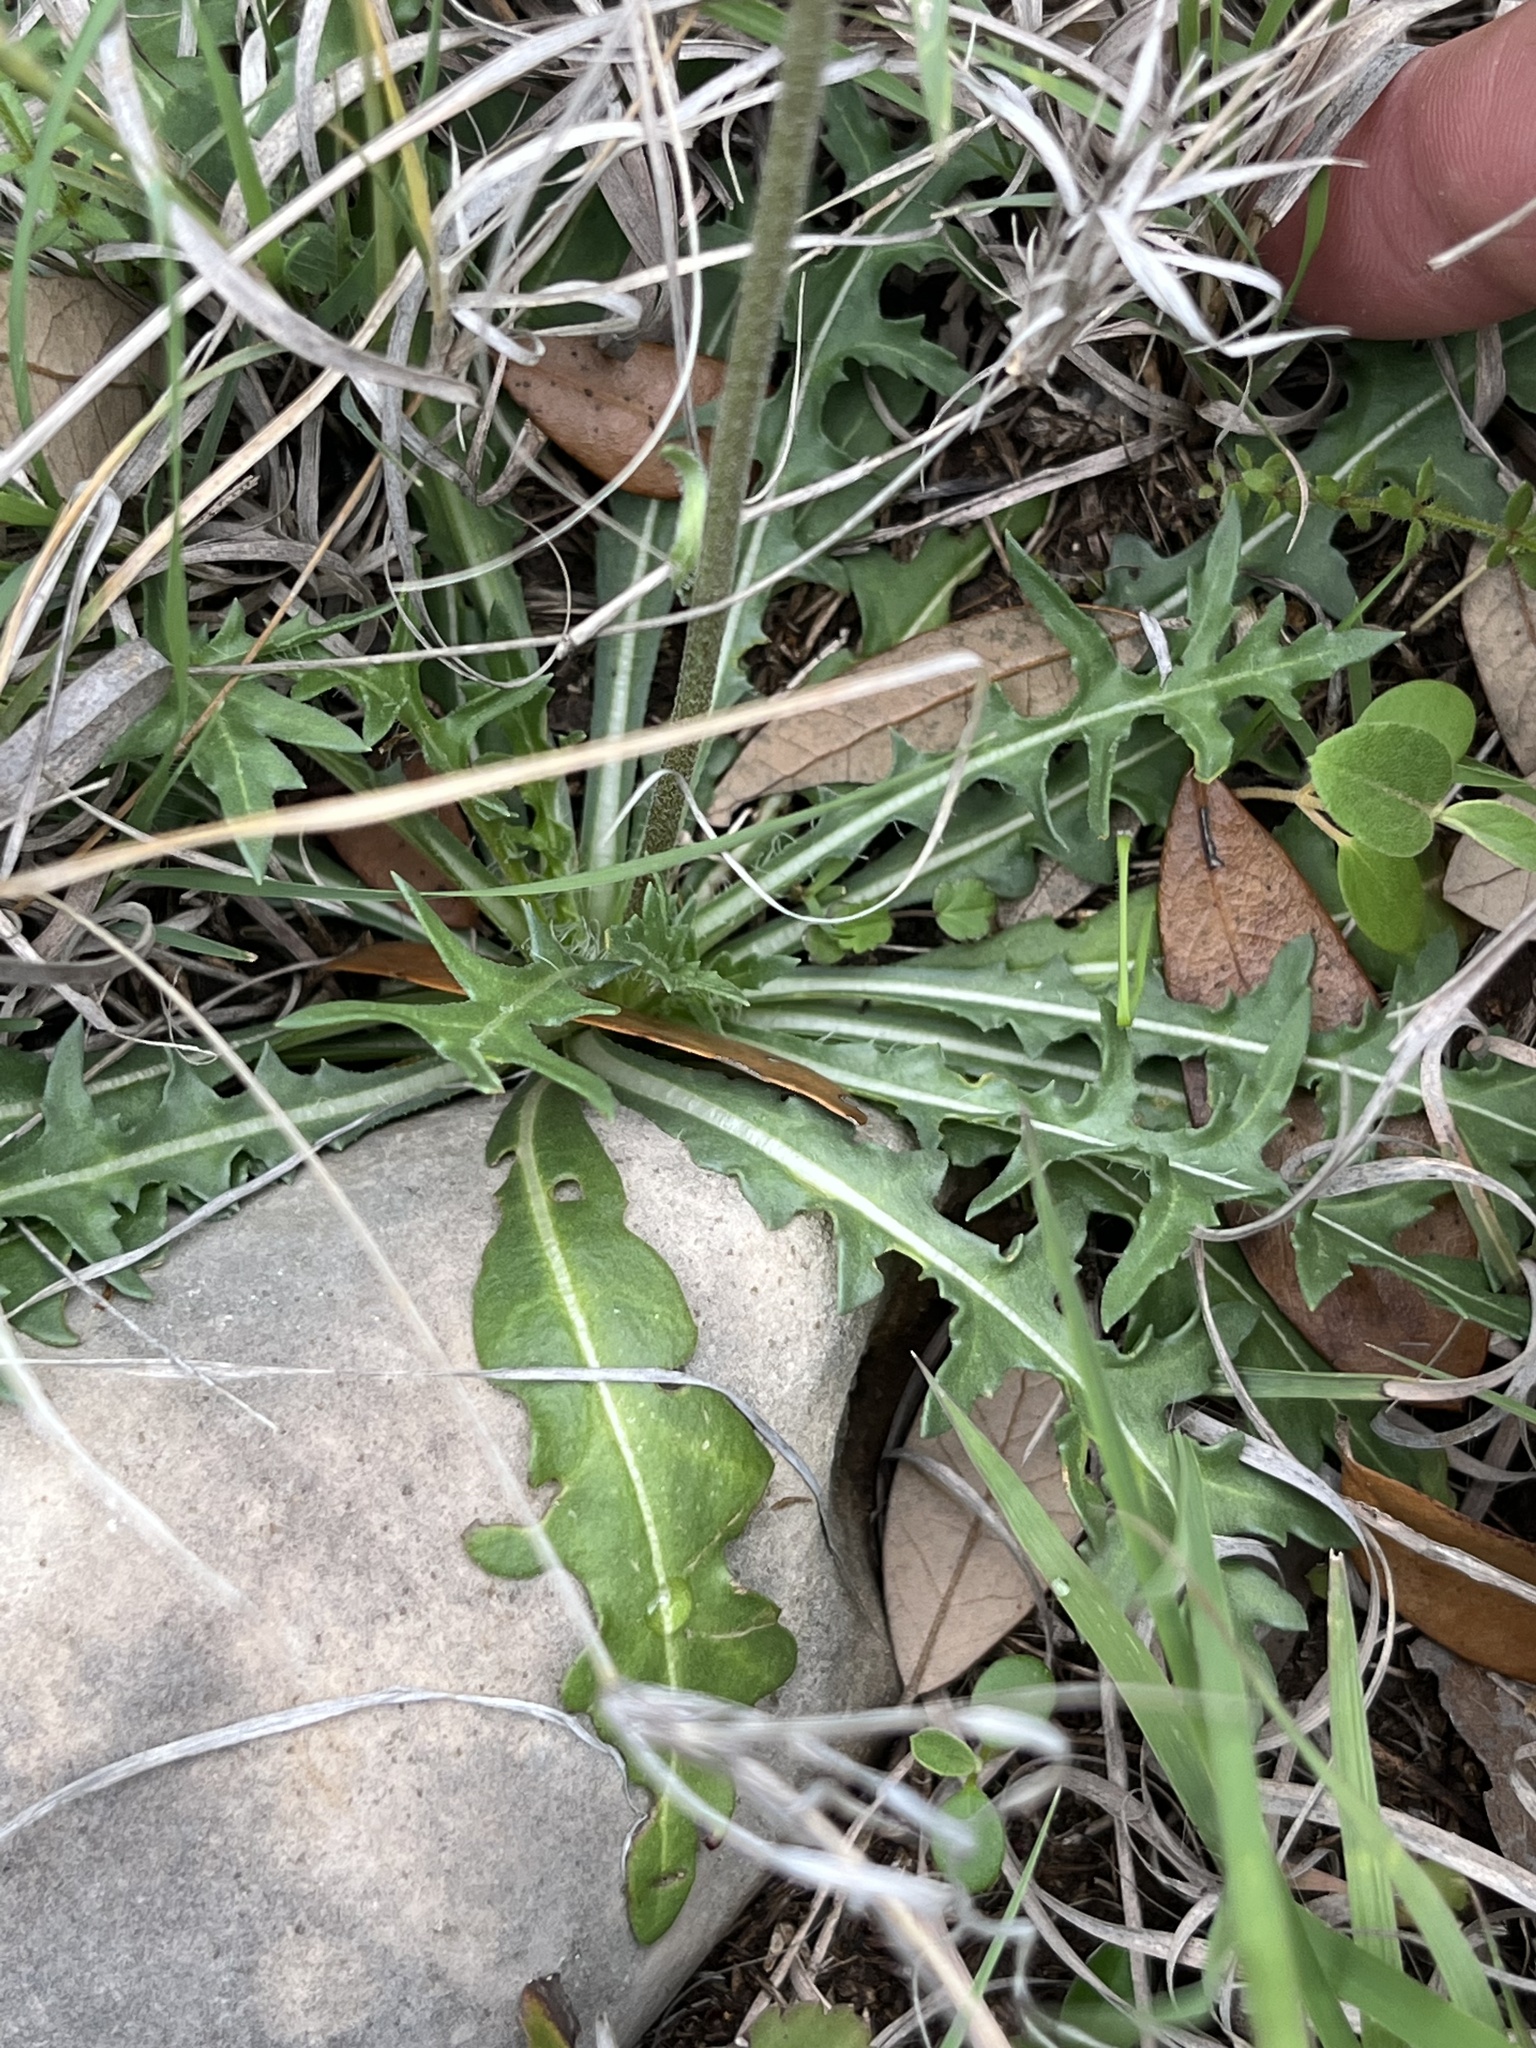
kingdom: Plantae
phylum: Tracheophyta
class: Magnoliopsida
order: Asterales
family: Asteraceae
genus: Gaillardia
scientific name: Gaillardia suavis
